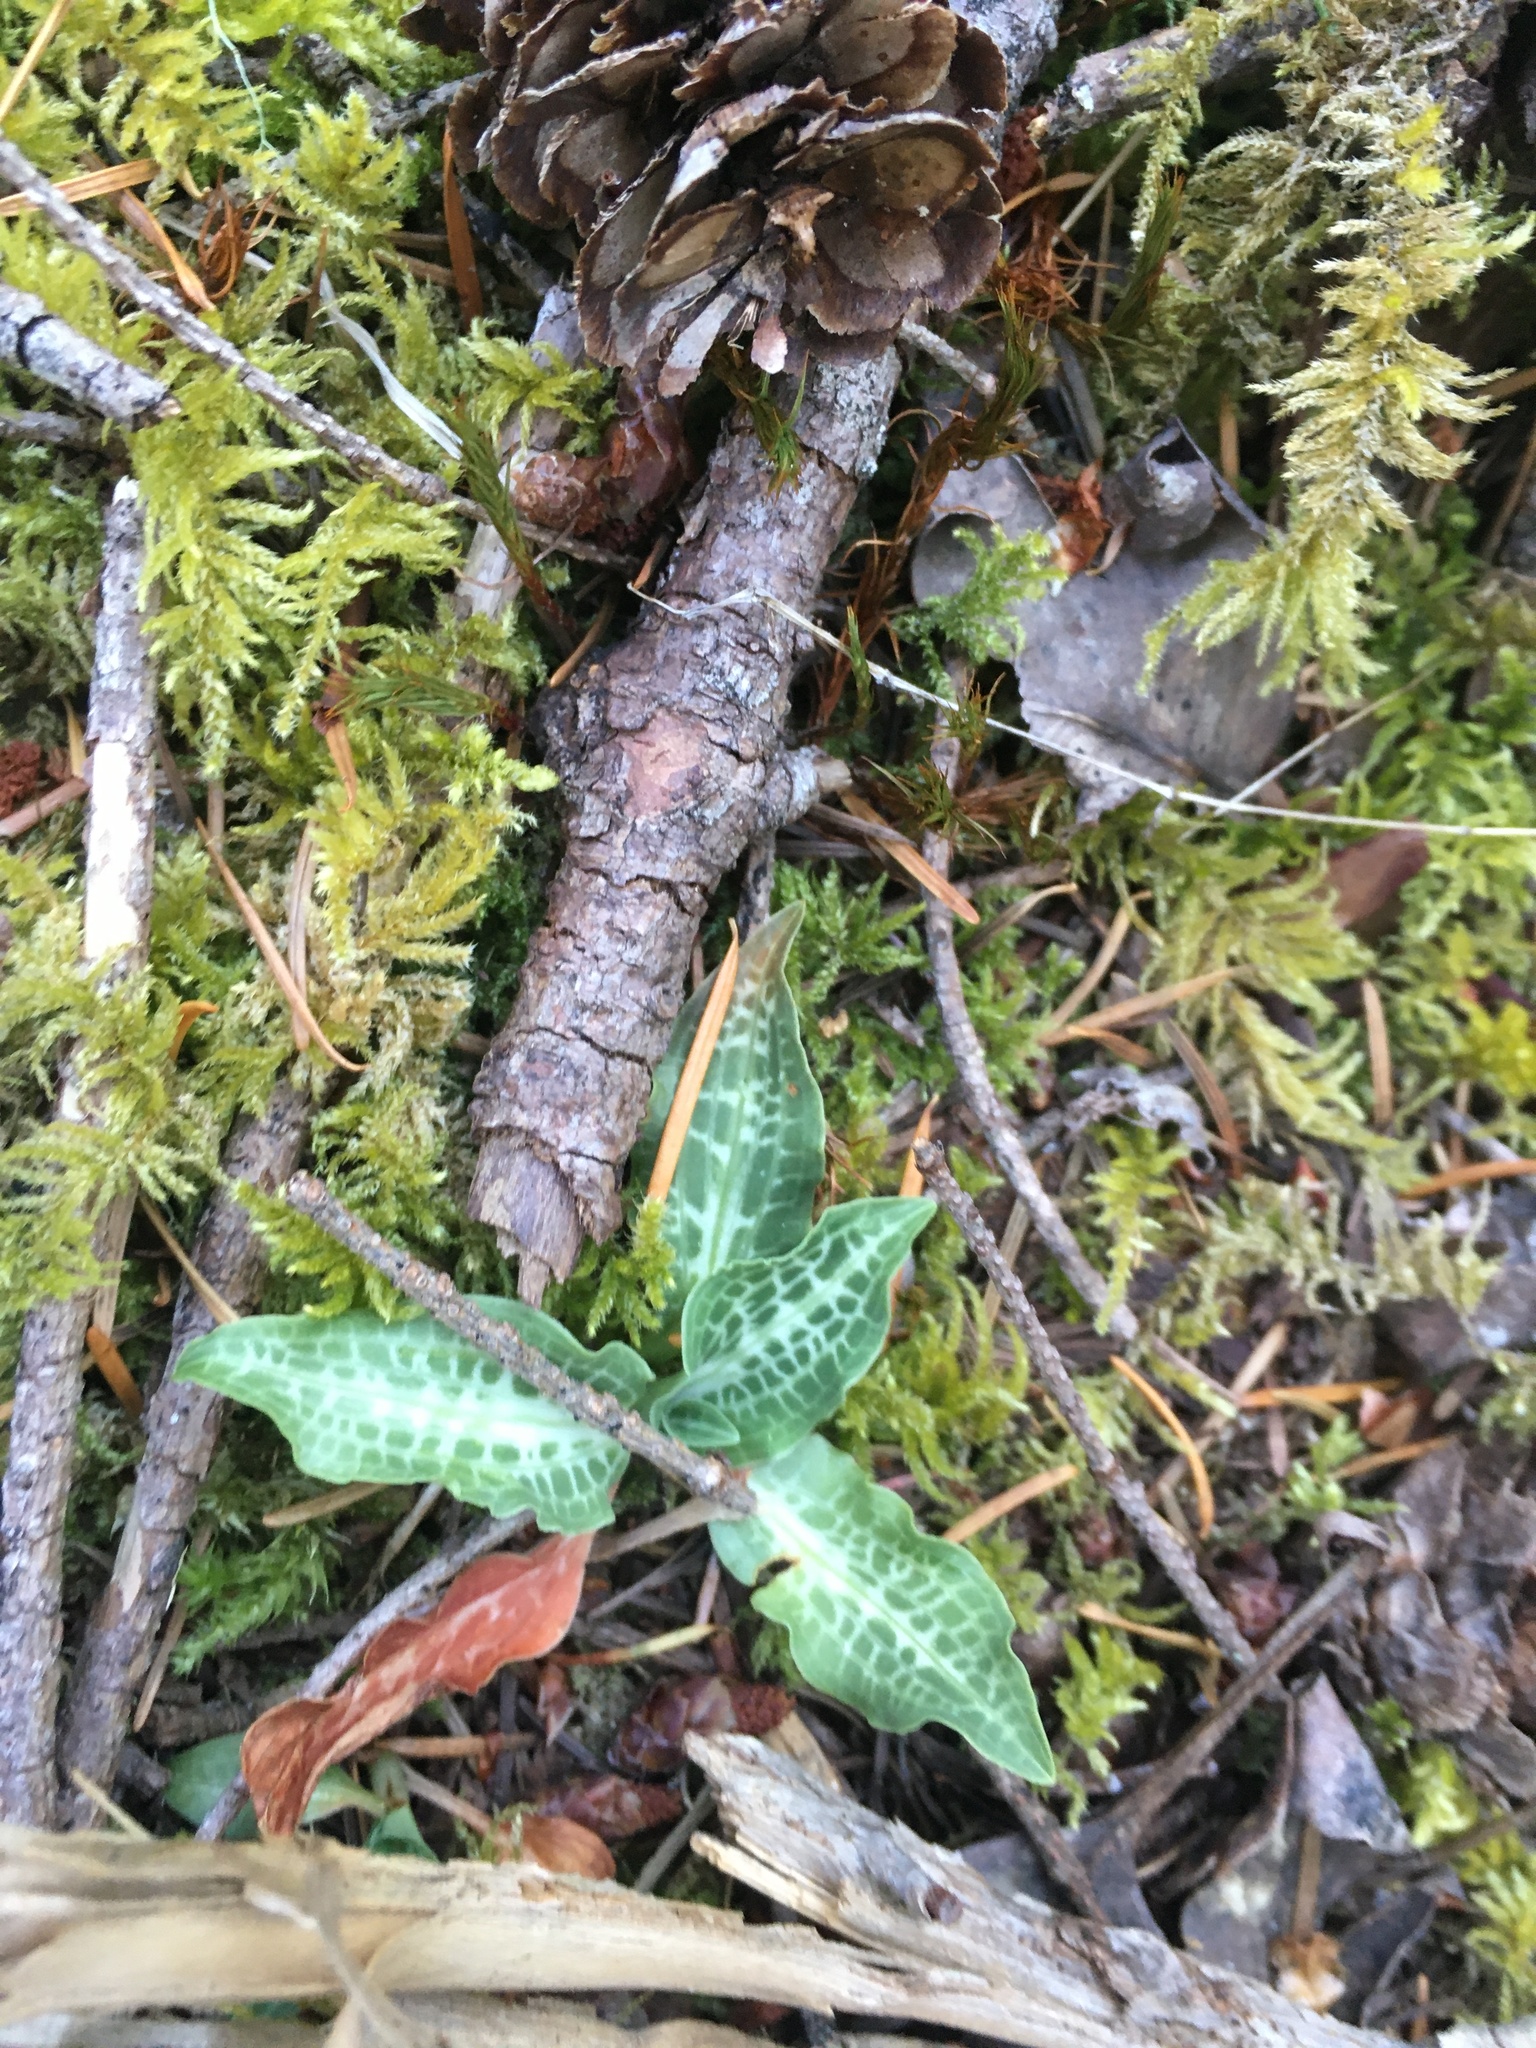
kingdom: Plantae
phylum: Tracheophyta
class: Liliopsida
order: Asparagales
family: Orchidaceae
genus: Goodyera
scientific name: Goodyera oblongifolia
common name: Giant rattlesnake-plantain
